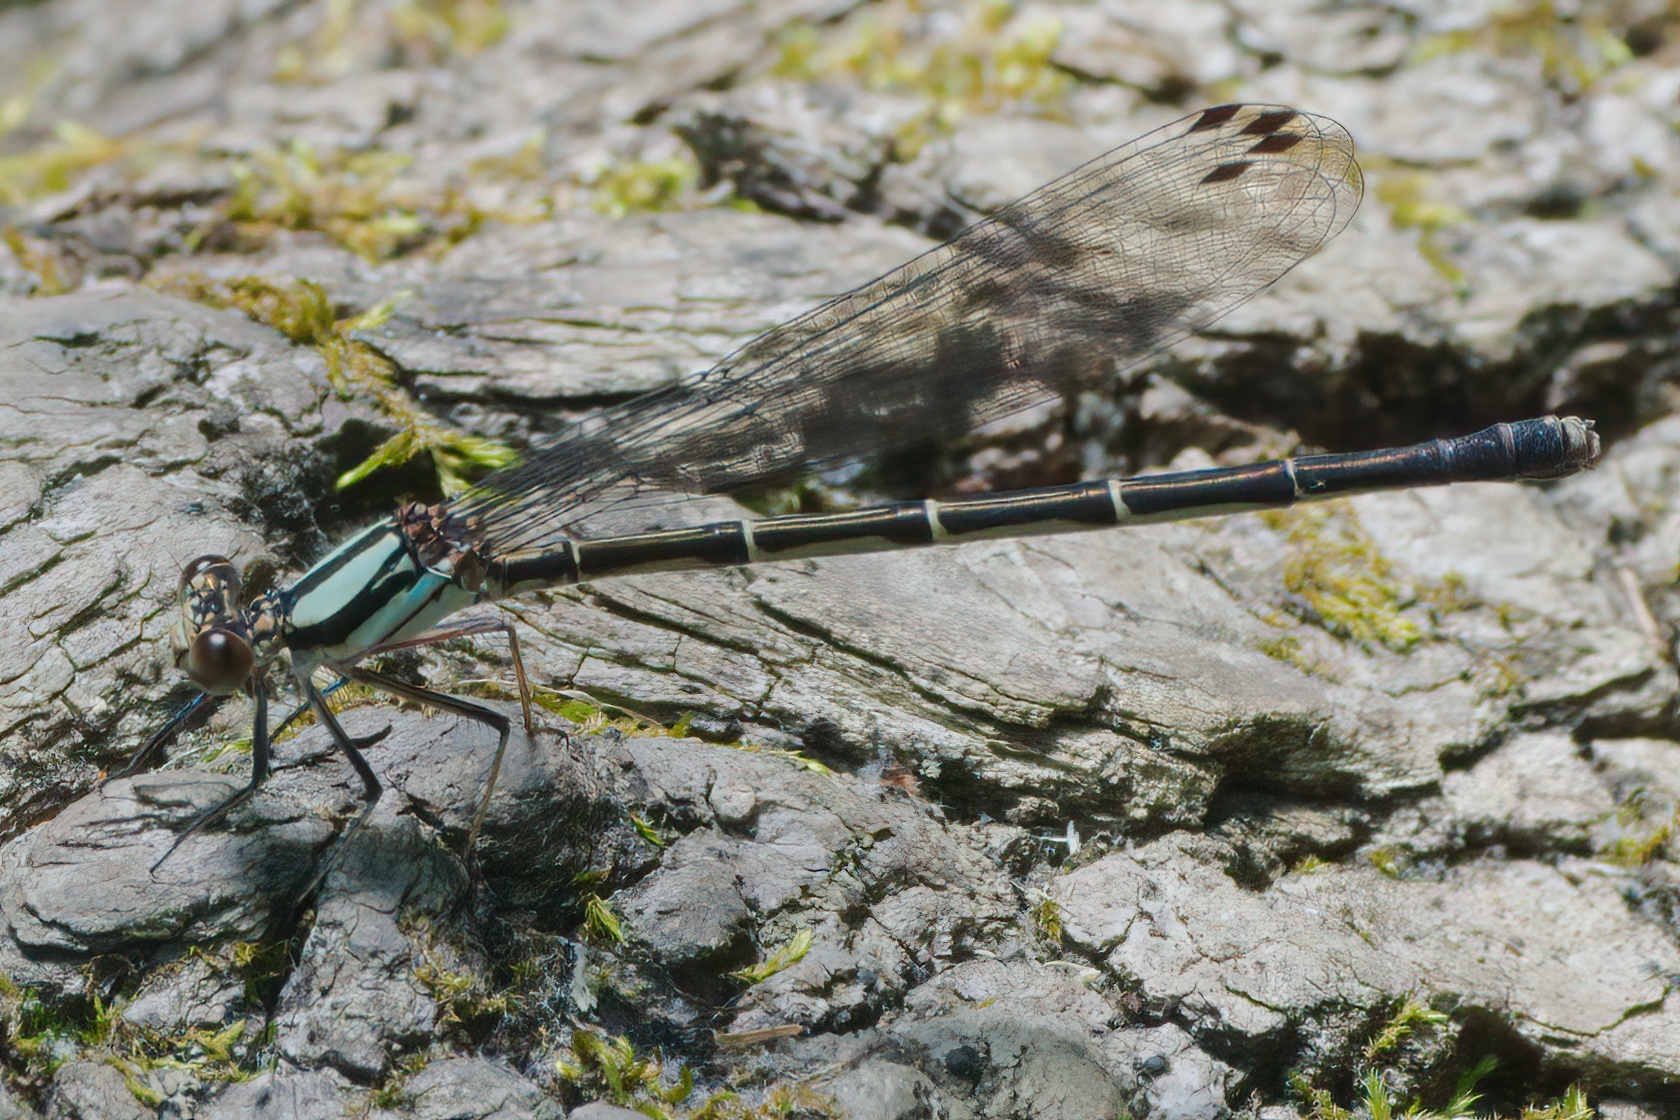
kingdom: Animalia
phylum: Arthropoda
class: Insecta
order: Odonata
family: Coenagrionidae
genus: Argia
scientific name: Argia tibialis
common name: Blue-tipped dancer
